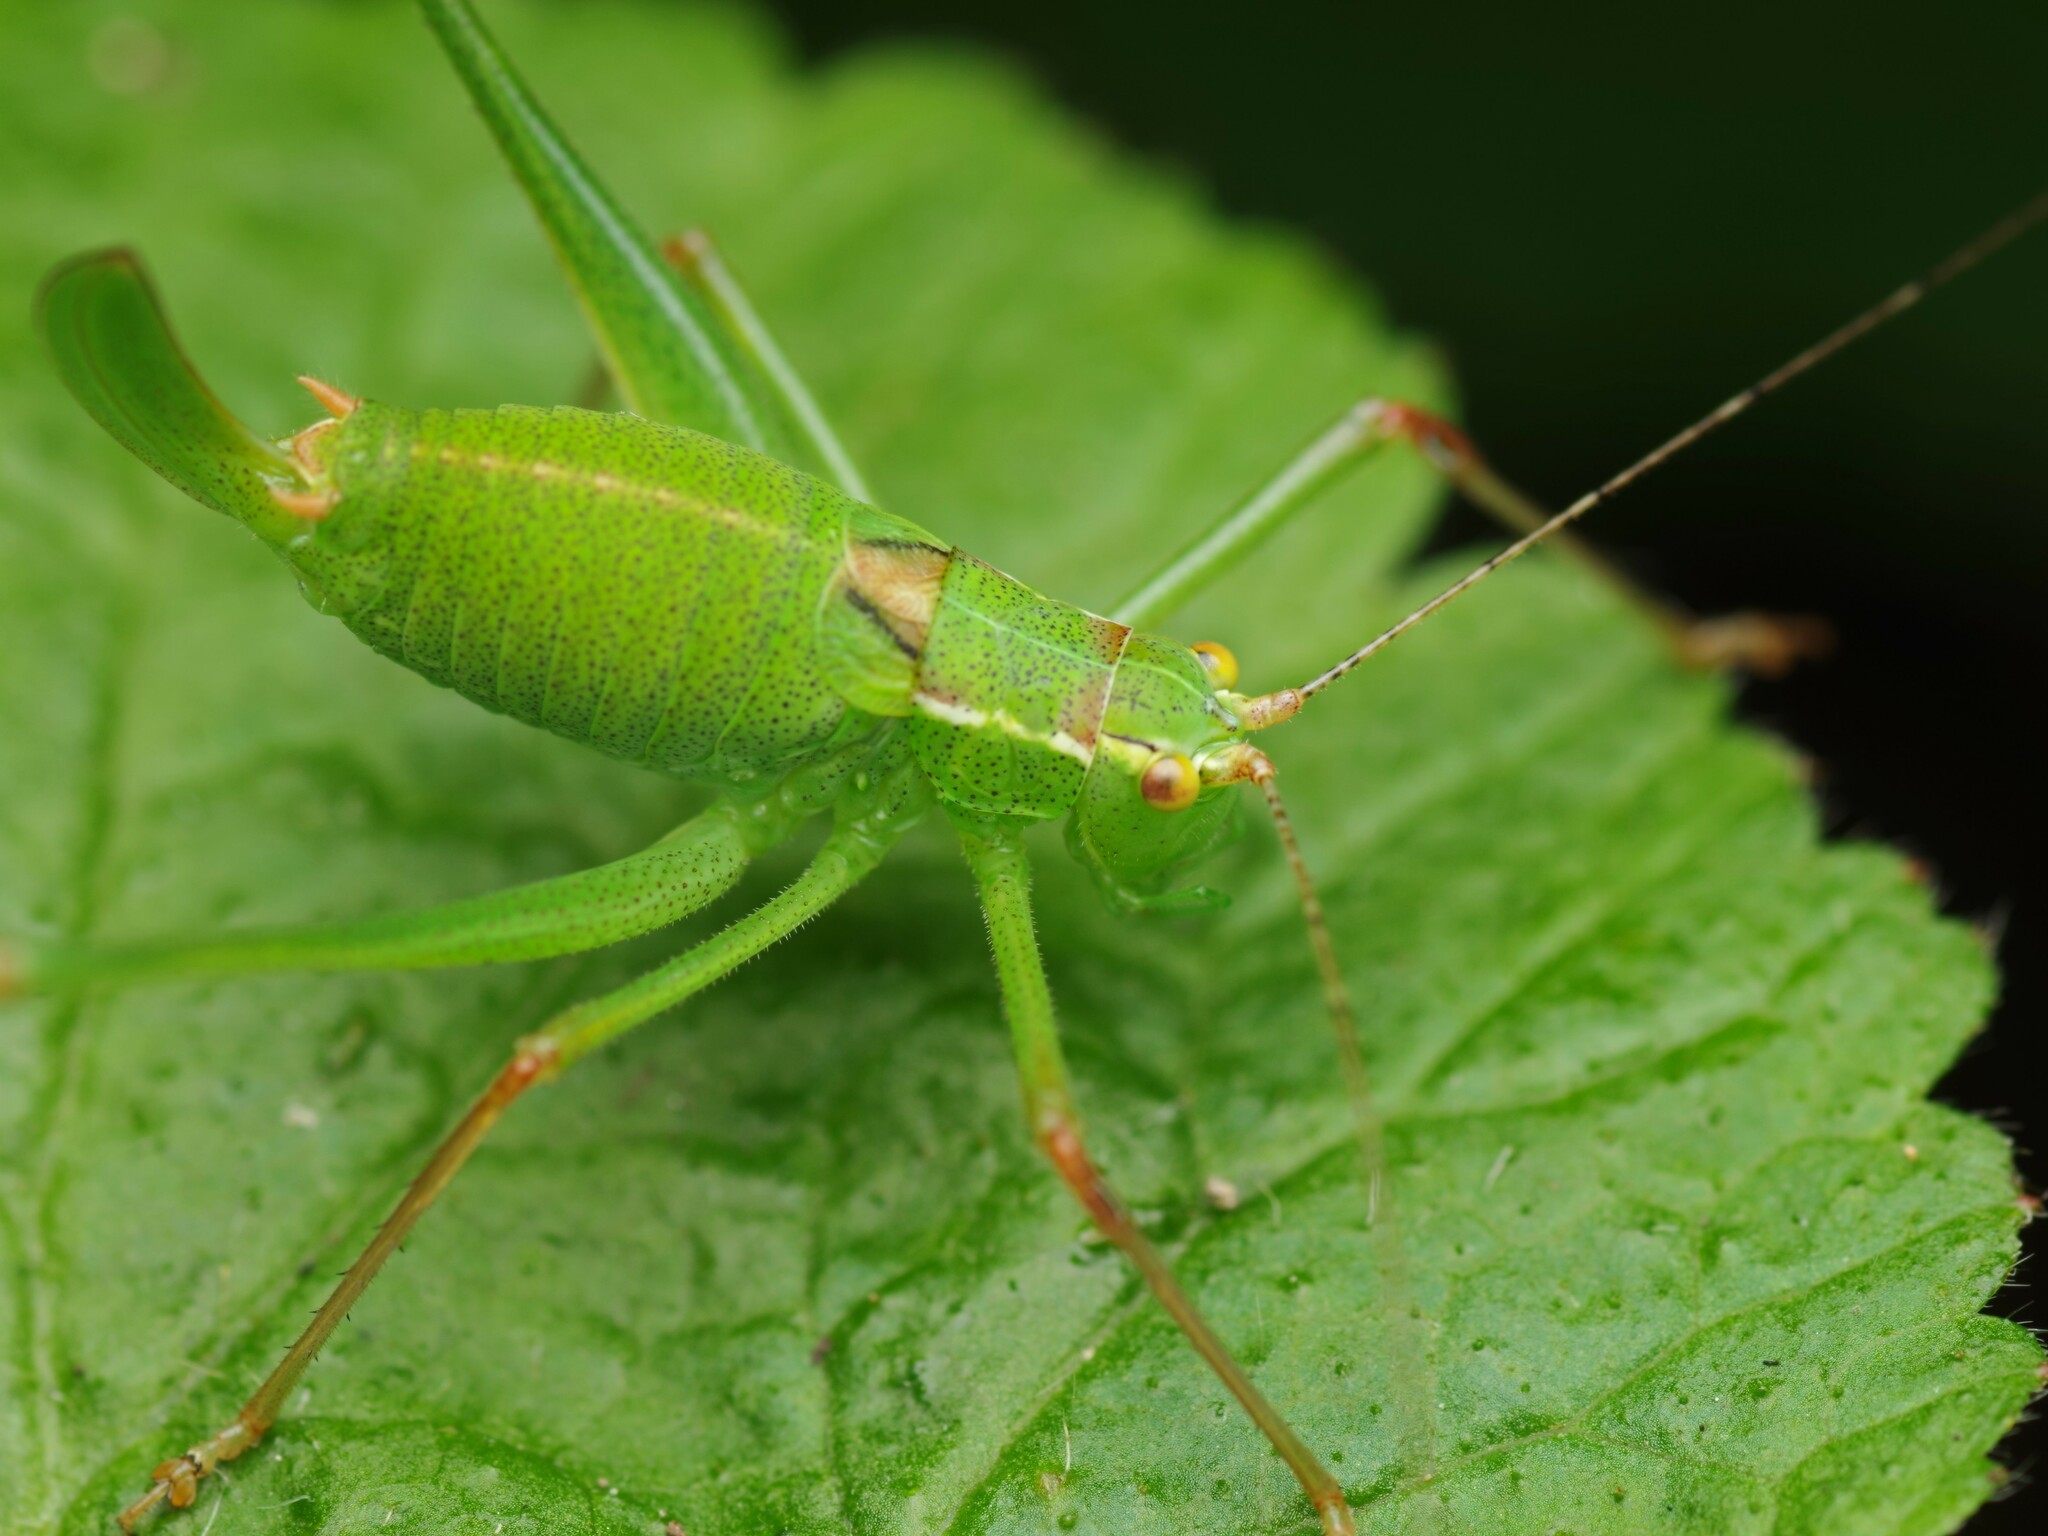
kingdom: Animalia
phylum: Arthropoda
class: Insecta
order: Orthoptera
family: Tettigoniidae
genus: Leptophyes
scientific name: Leptophyes punctatissima
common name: Speckled bush-cricket
